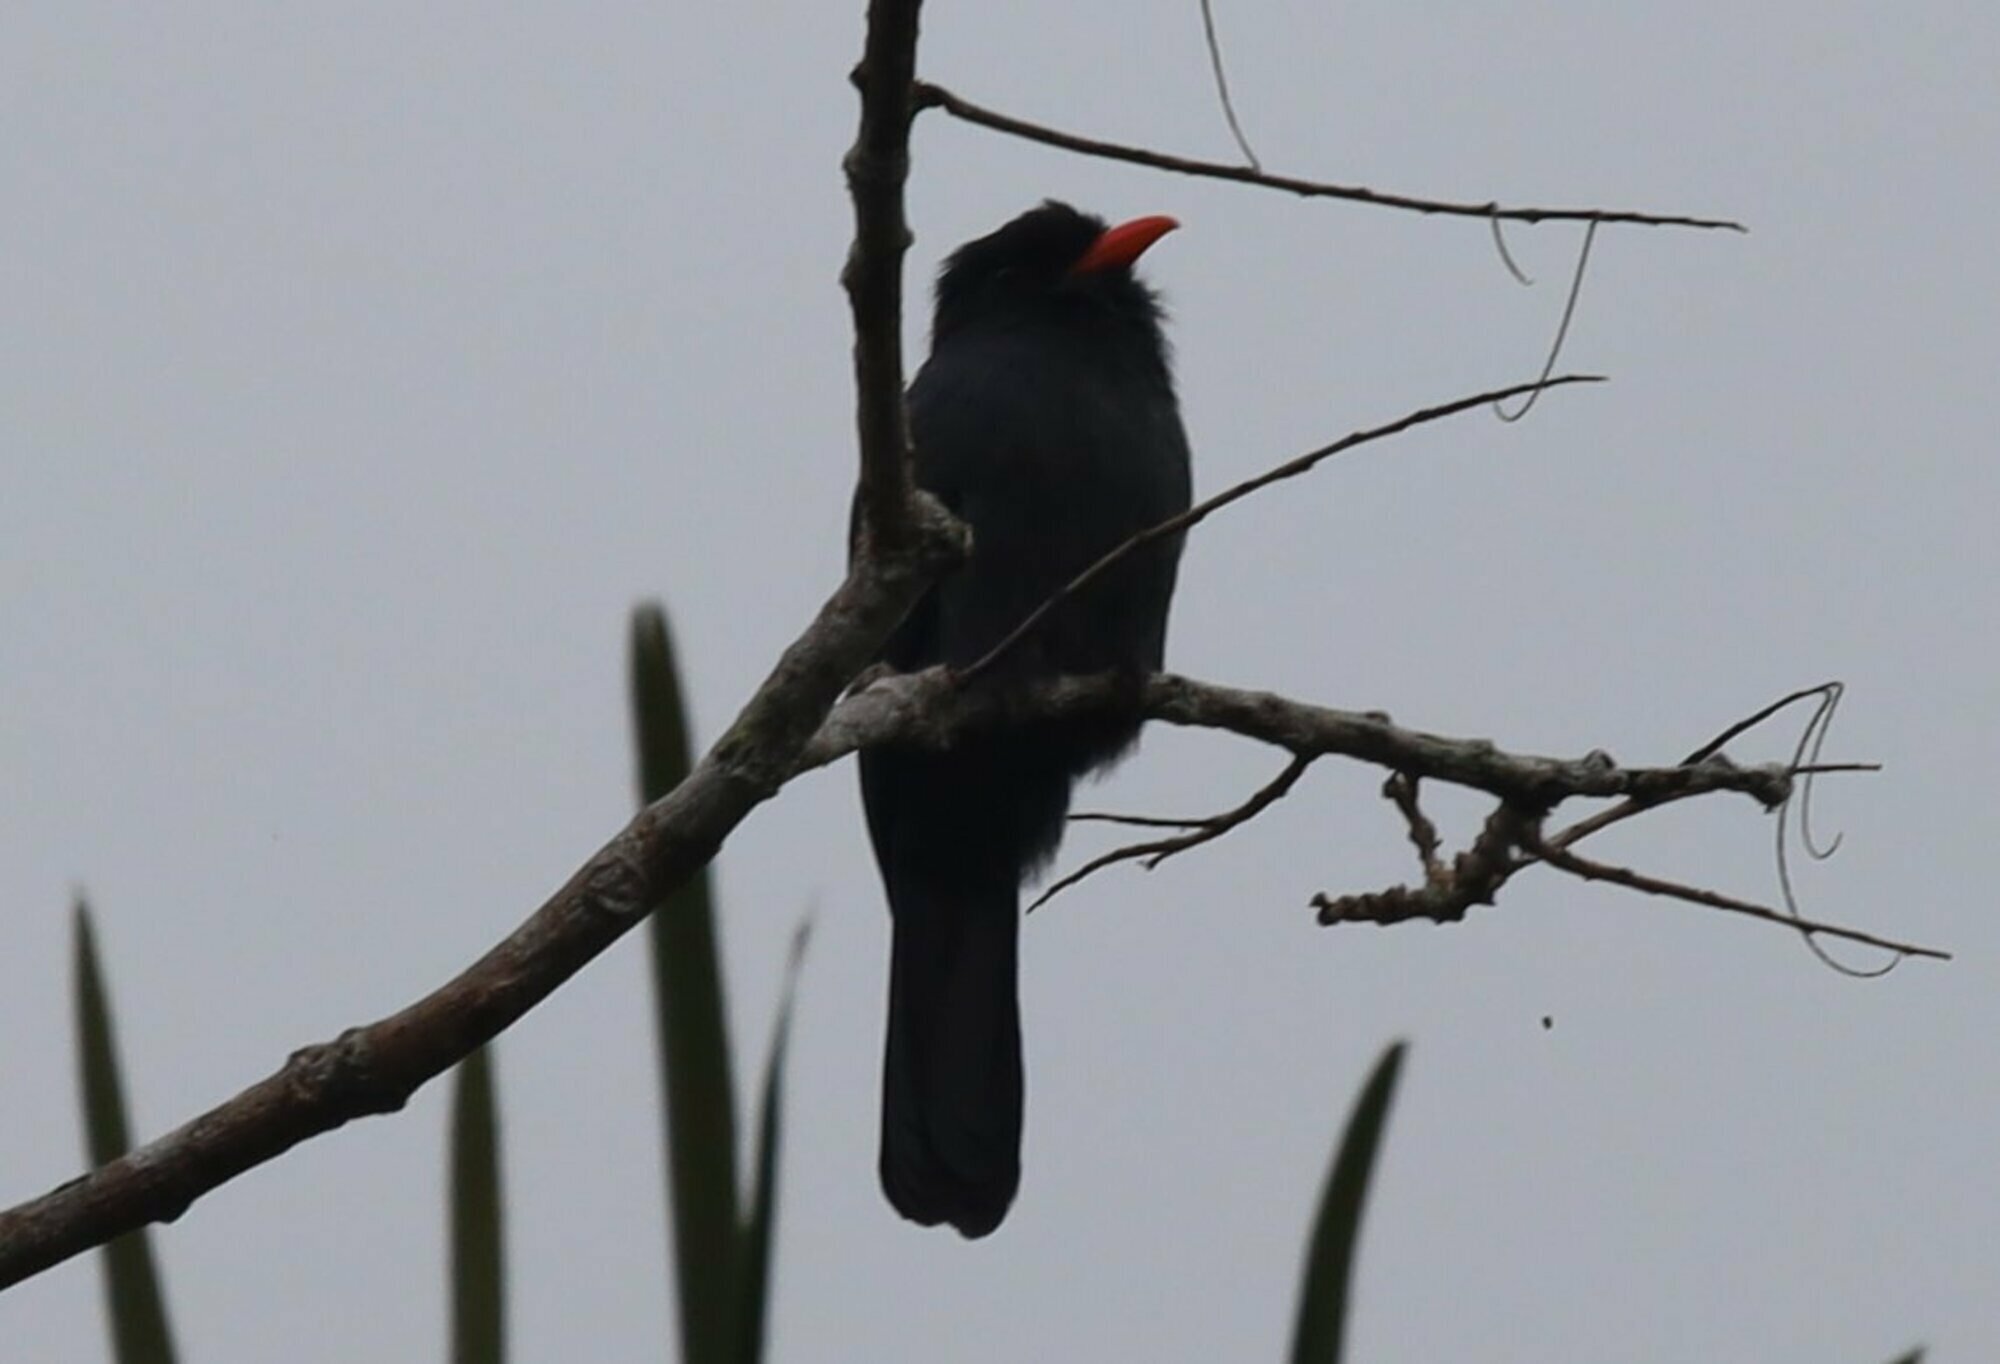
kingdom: Animalia
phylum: Chordata
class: Aves
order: Piciformes
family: Bucconidae
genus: Monasa
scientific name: Monasa nigrifrons
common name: Black-fronted nunbird
